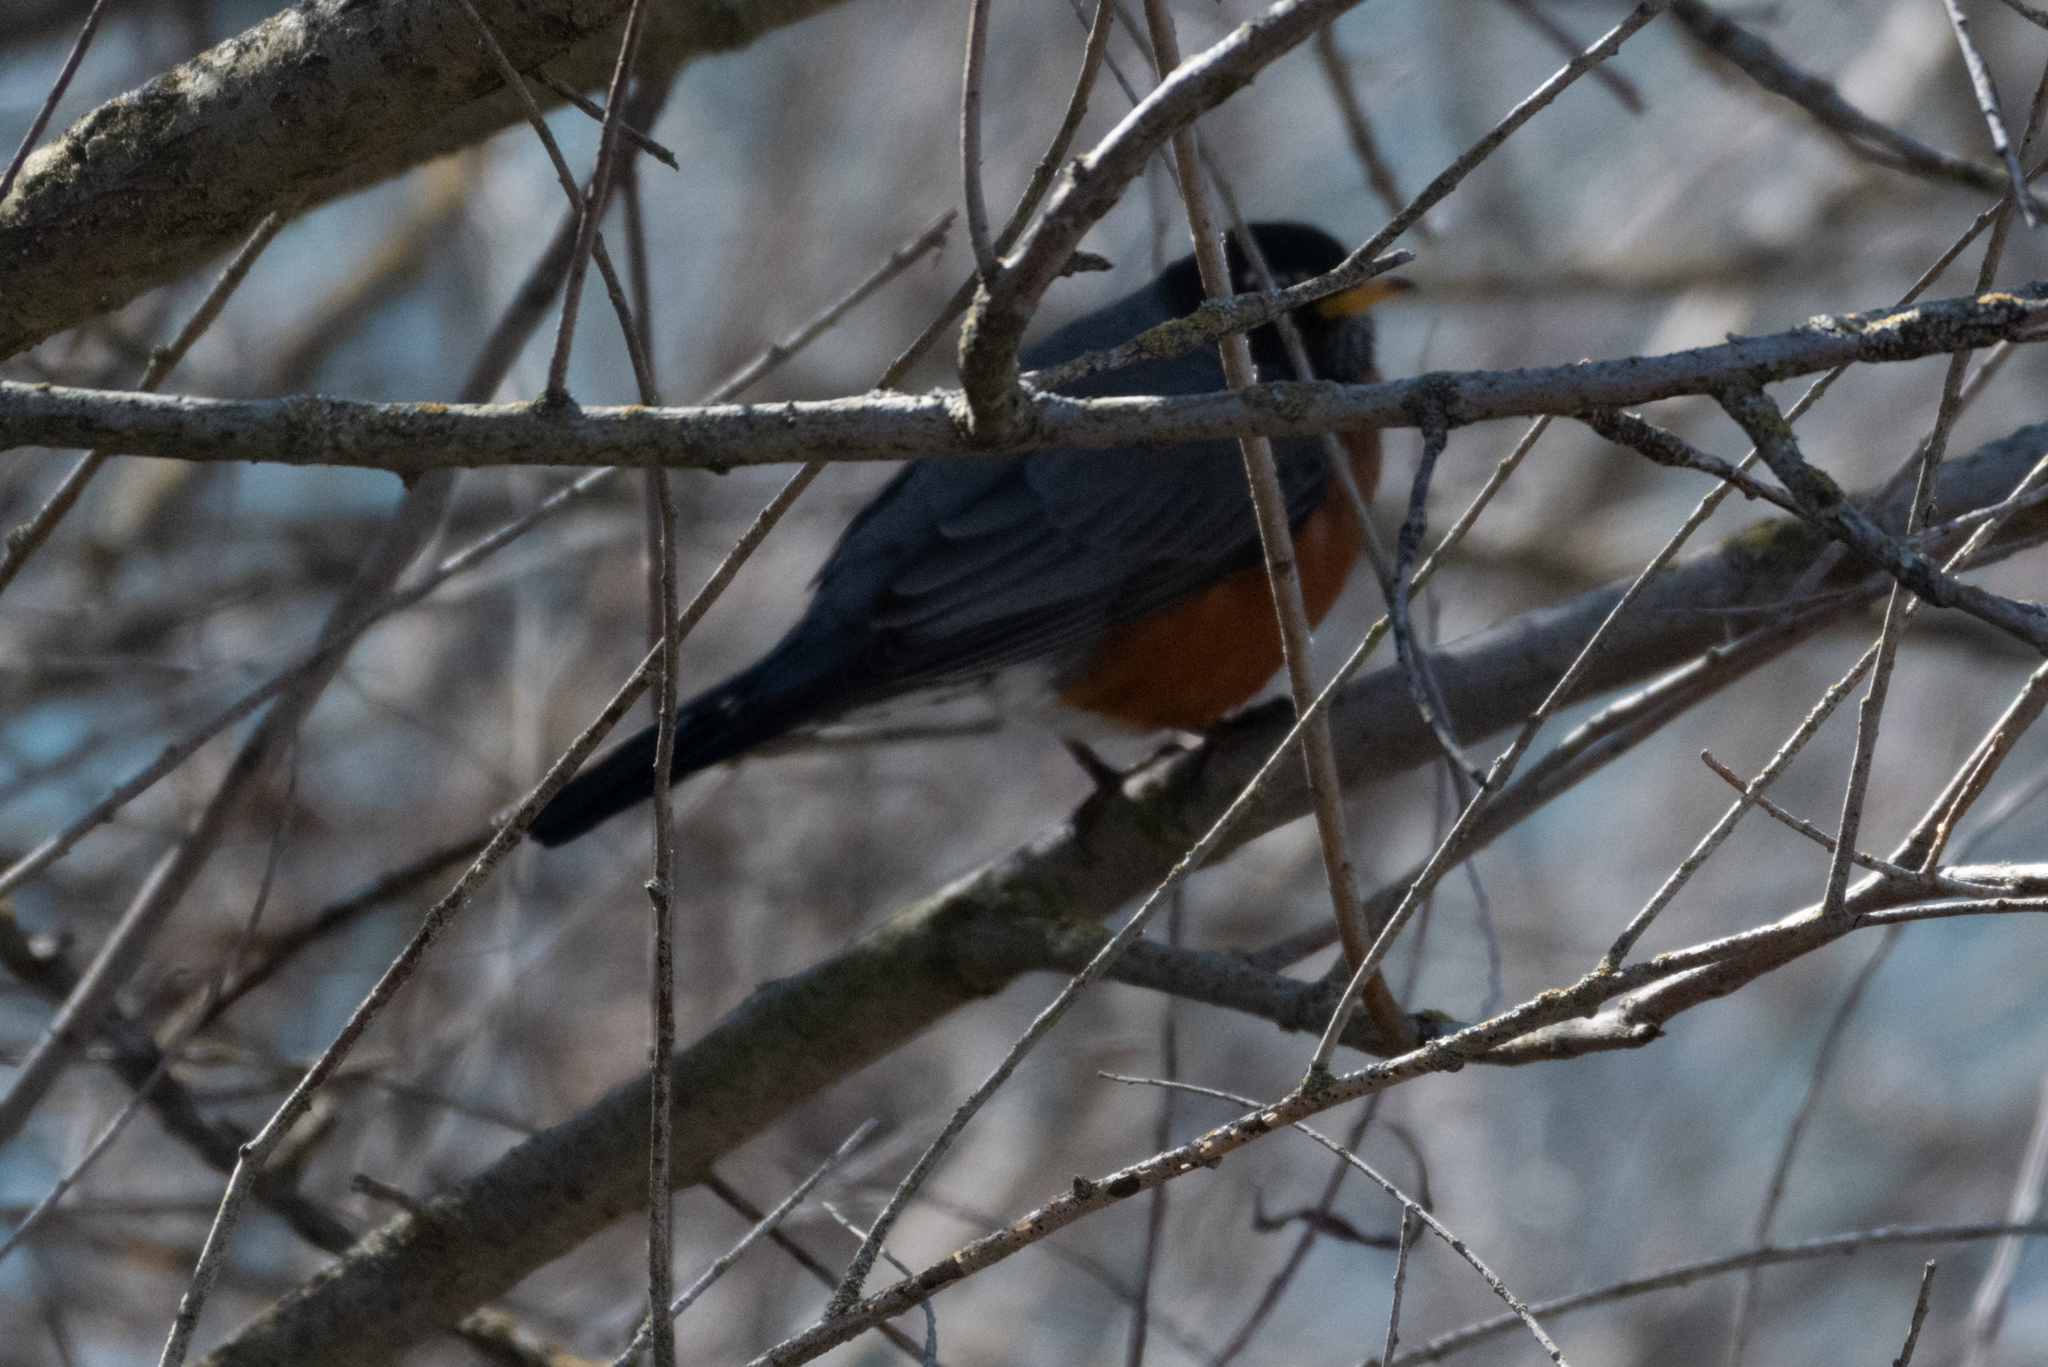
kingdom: Animalia
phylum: Chordata
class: Aves
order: Passeriformes
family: Turdidae
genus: Turdus
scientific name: Turdus migratorius
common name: American robin
